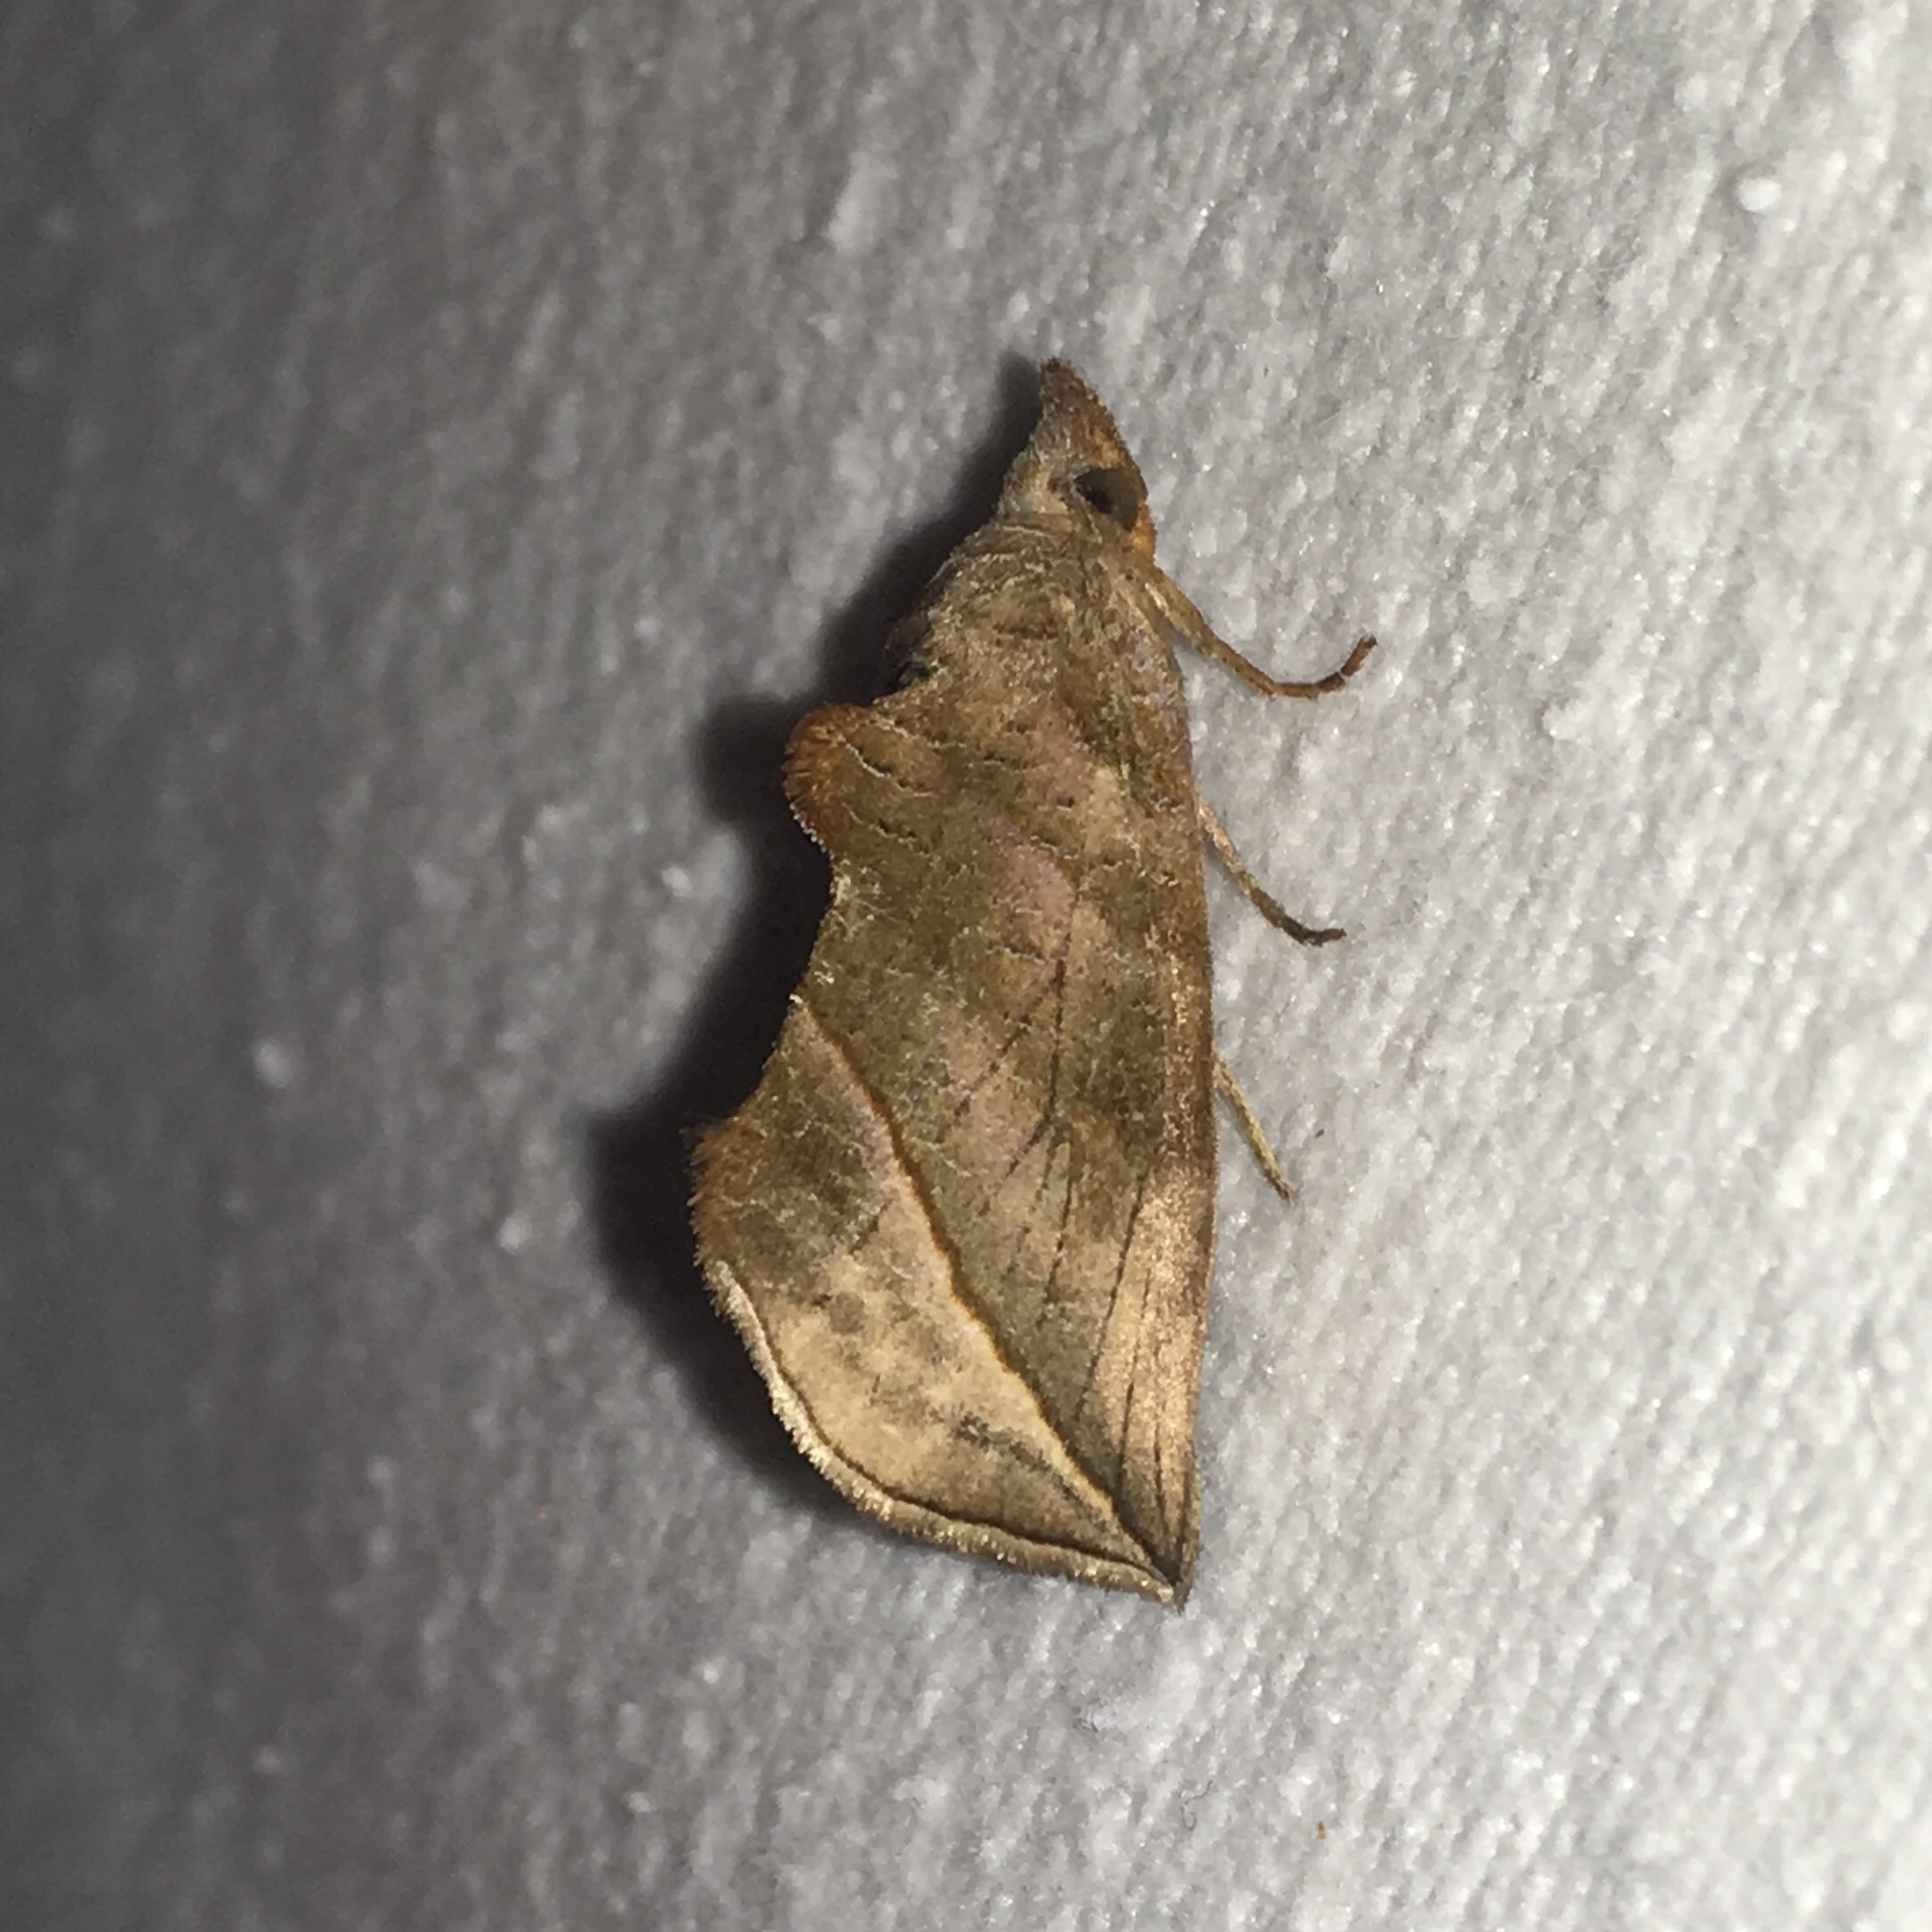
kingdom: Animalia
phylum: Arthropoda
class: Insecta
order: Lepidoptera
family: Erebidae
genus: Calyptra
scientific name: Calyptra canadensis
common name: Canadian owlet
